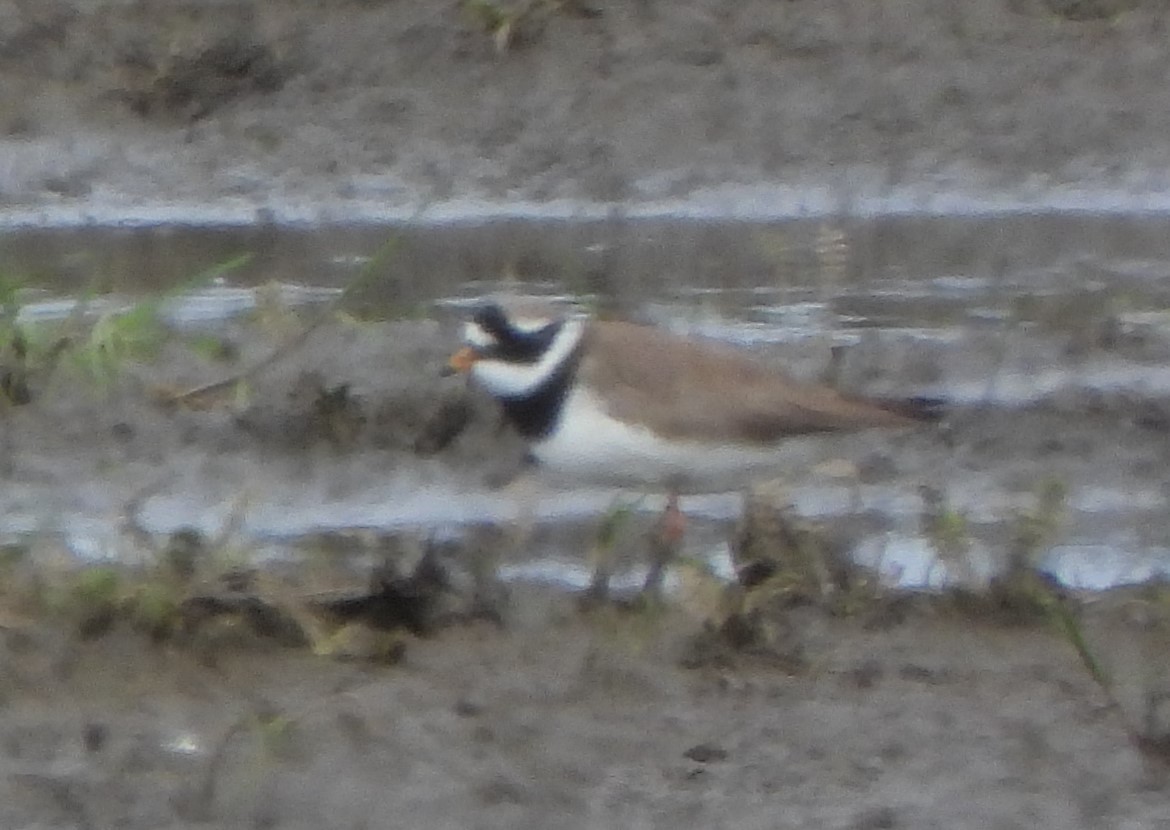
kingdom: Animalia
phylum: Chordata
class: Aves
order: Charadriiformes
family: Charadriidae
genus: Charadrius
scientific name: Charadrius hiaticula
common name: Common ringed plover
